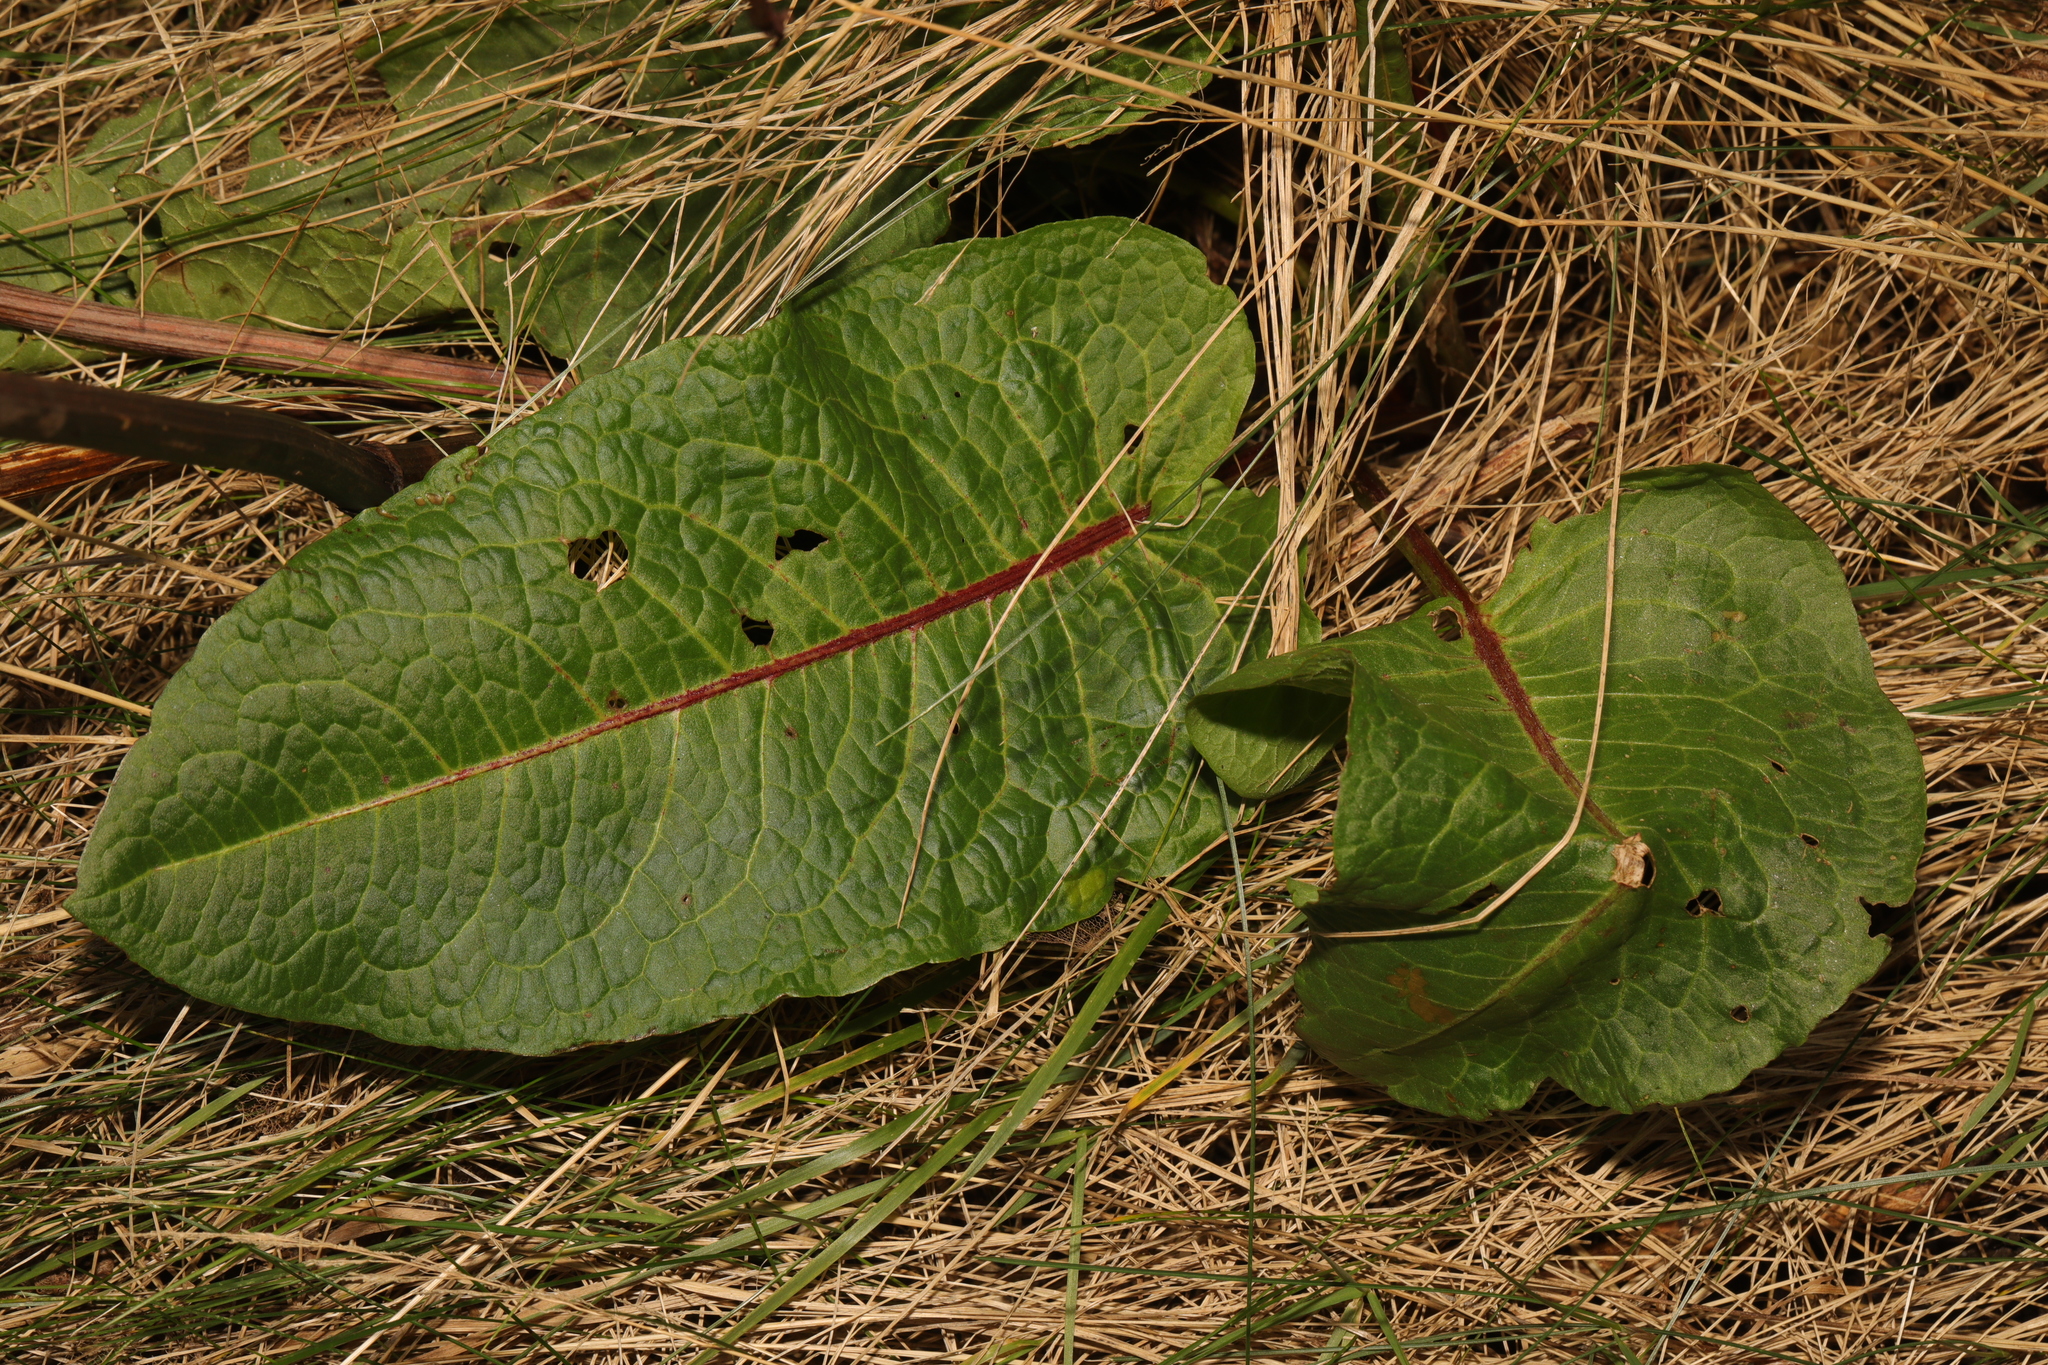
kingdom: Plantae
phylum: Tracheophyta
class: Magnoliopsida
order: Caryophyllales
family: Polygonaceae
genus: Rumex
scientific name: Rumex obtusifolius
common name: Bitter dock
